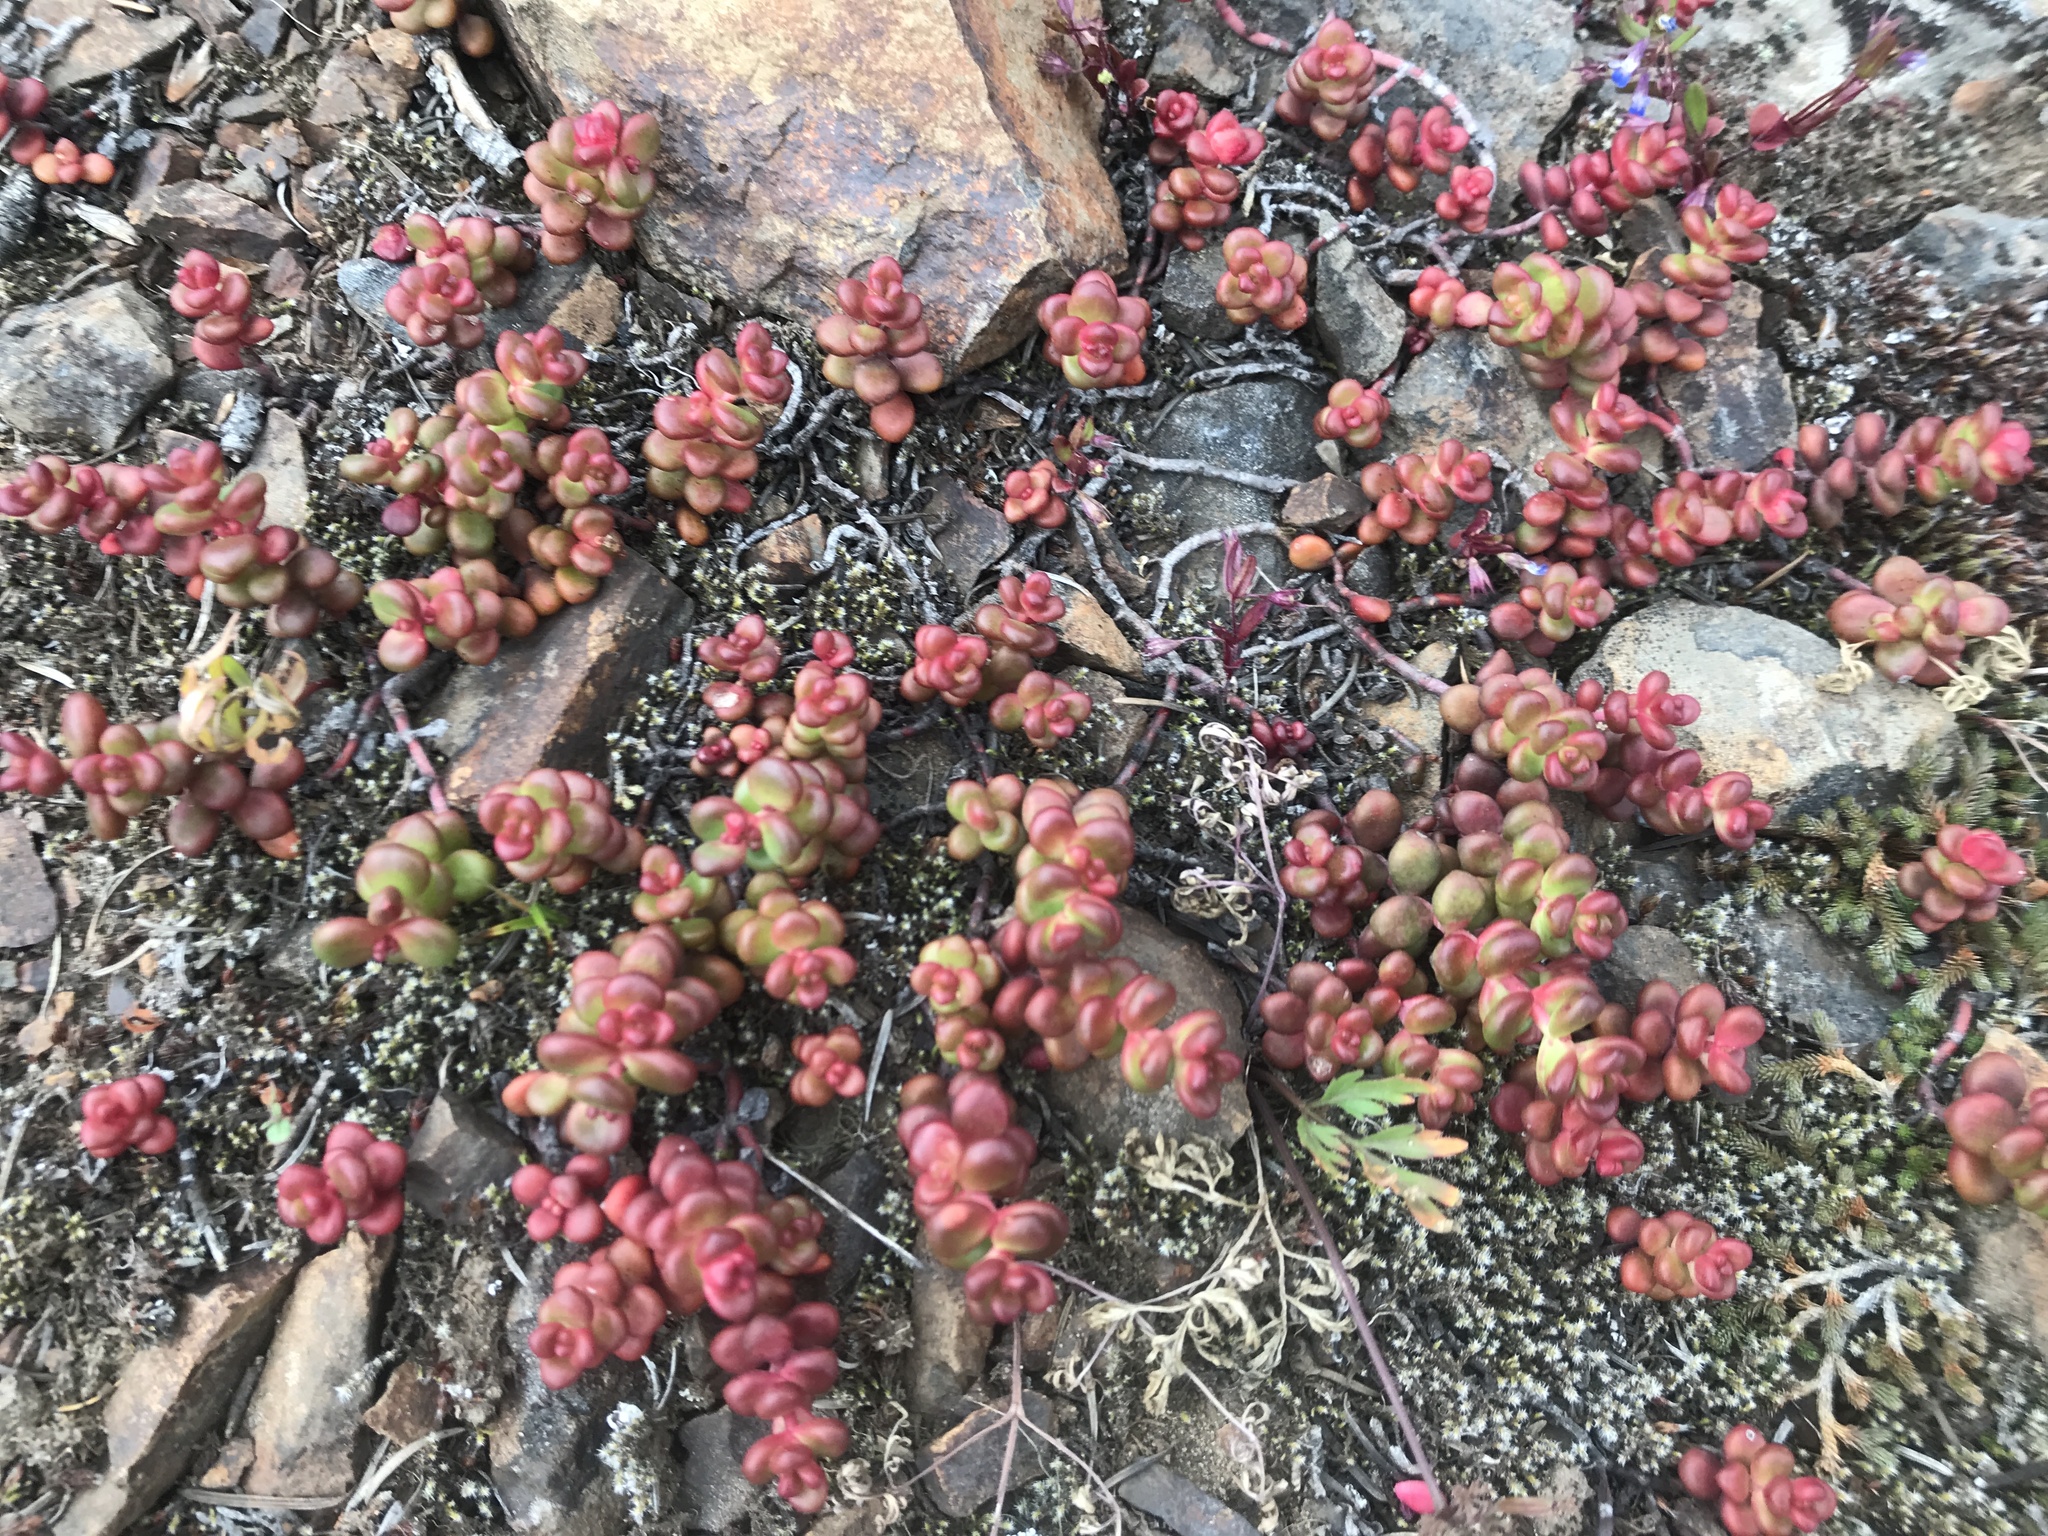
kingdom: Plantae
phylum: Tracheophyta
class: Magnoliopsida
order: Saxifragales
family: Crassulaceae
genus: Sedum
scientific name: Sedum divergens
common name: Cascade stonecrop
